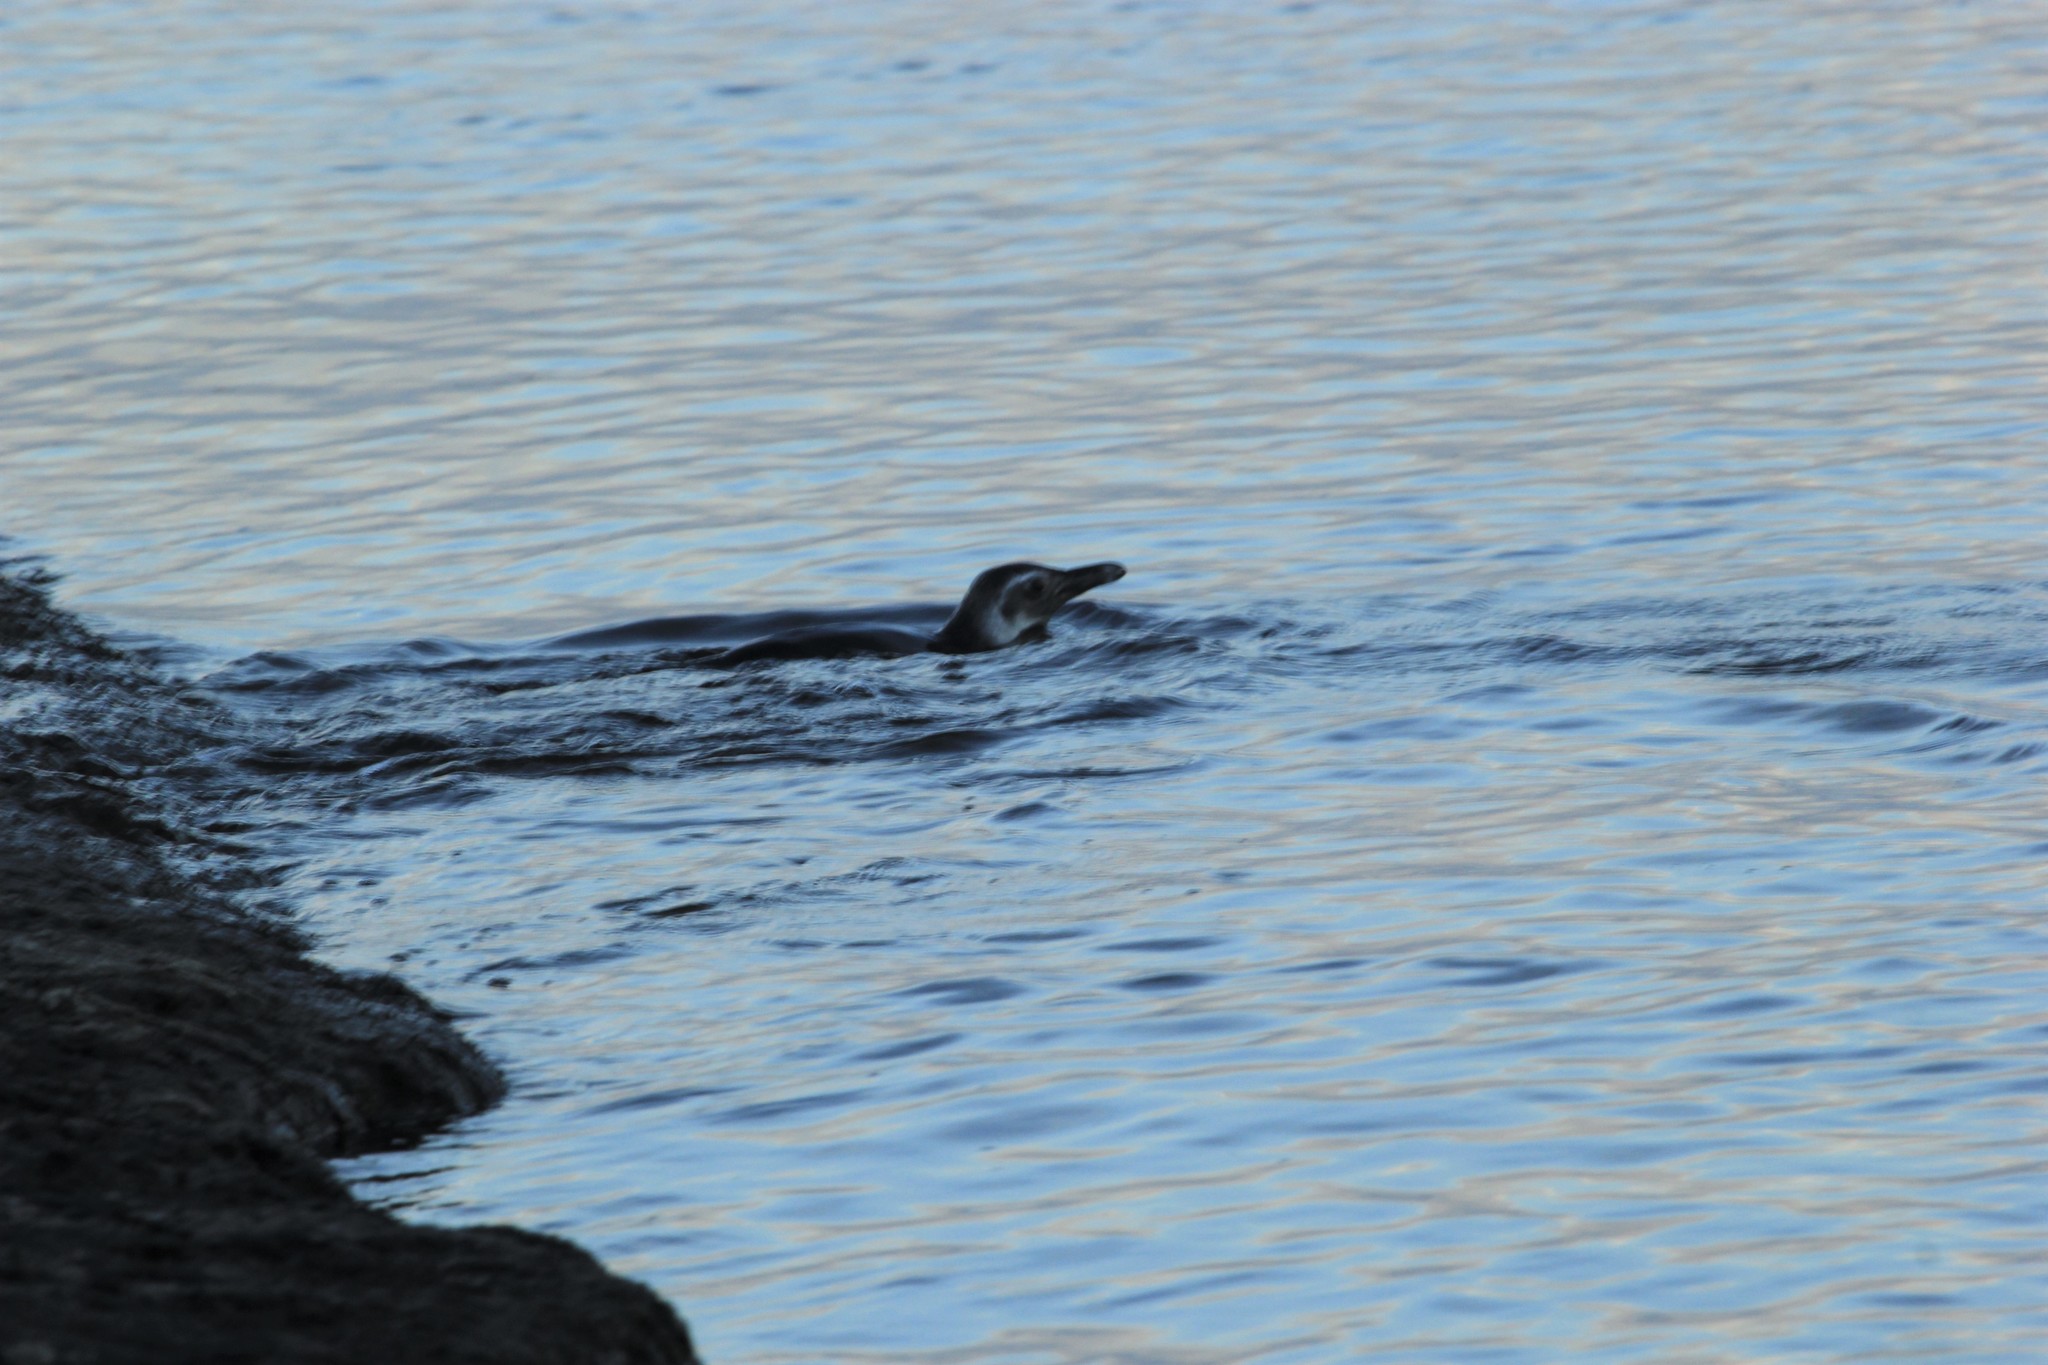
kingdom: Animalia
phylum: Chordata
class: Aves
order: Sphenisciformes
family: Spheniscidae
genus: Spheniscus
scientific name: Spheniscus magellanicus
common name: Magellanic penguin
